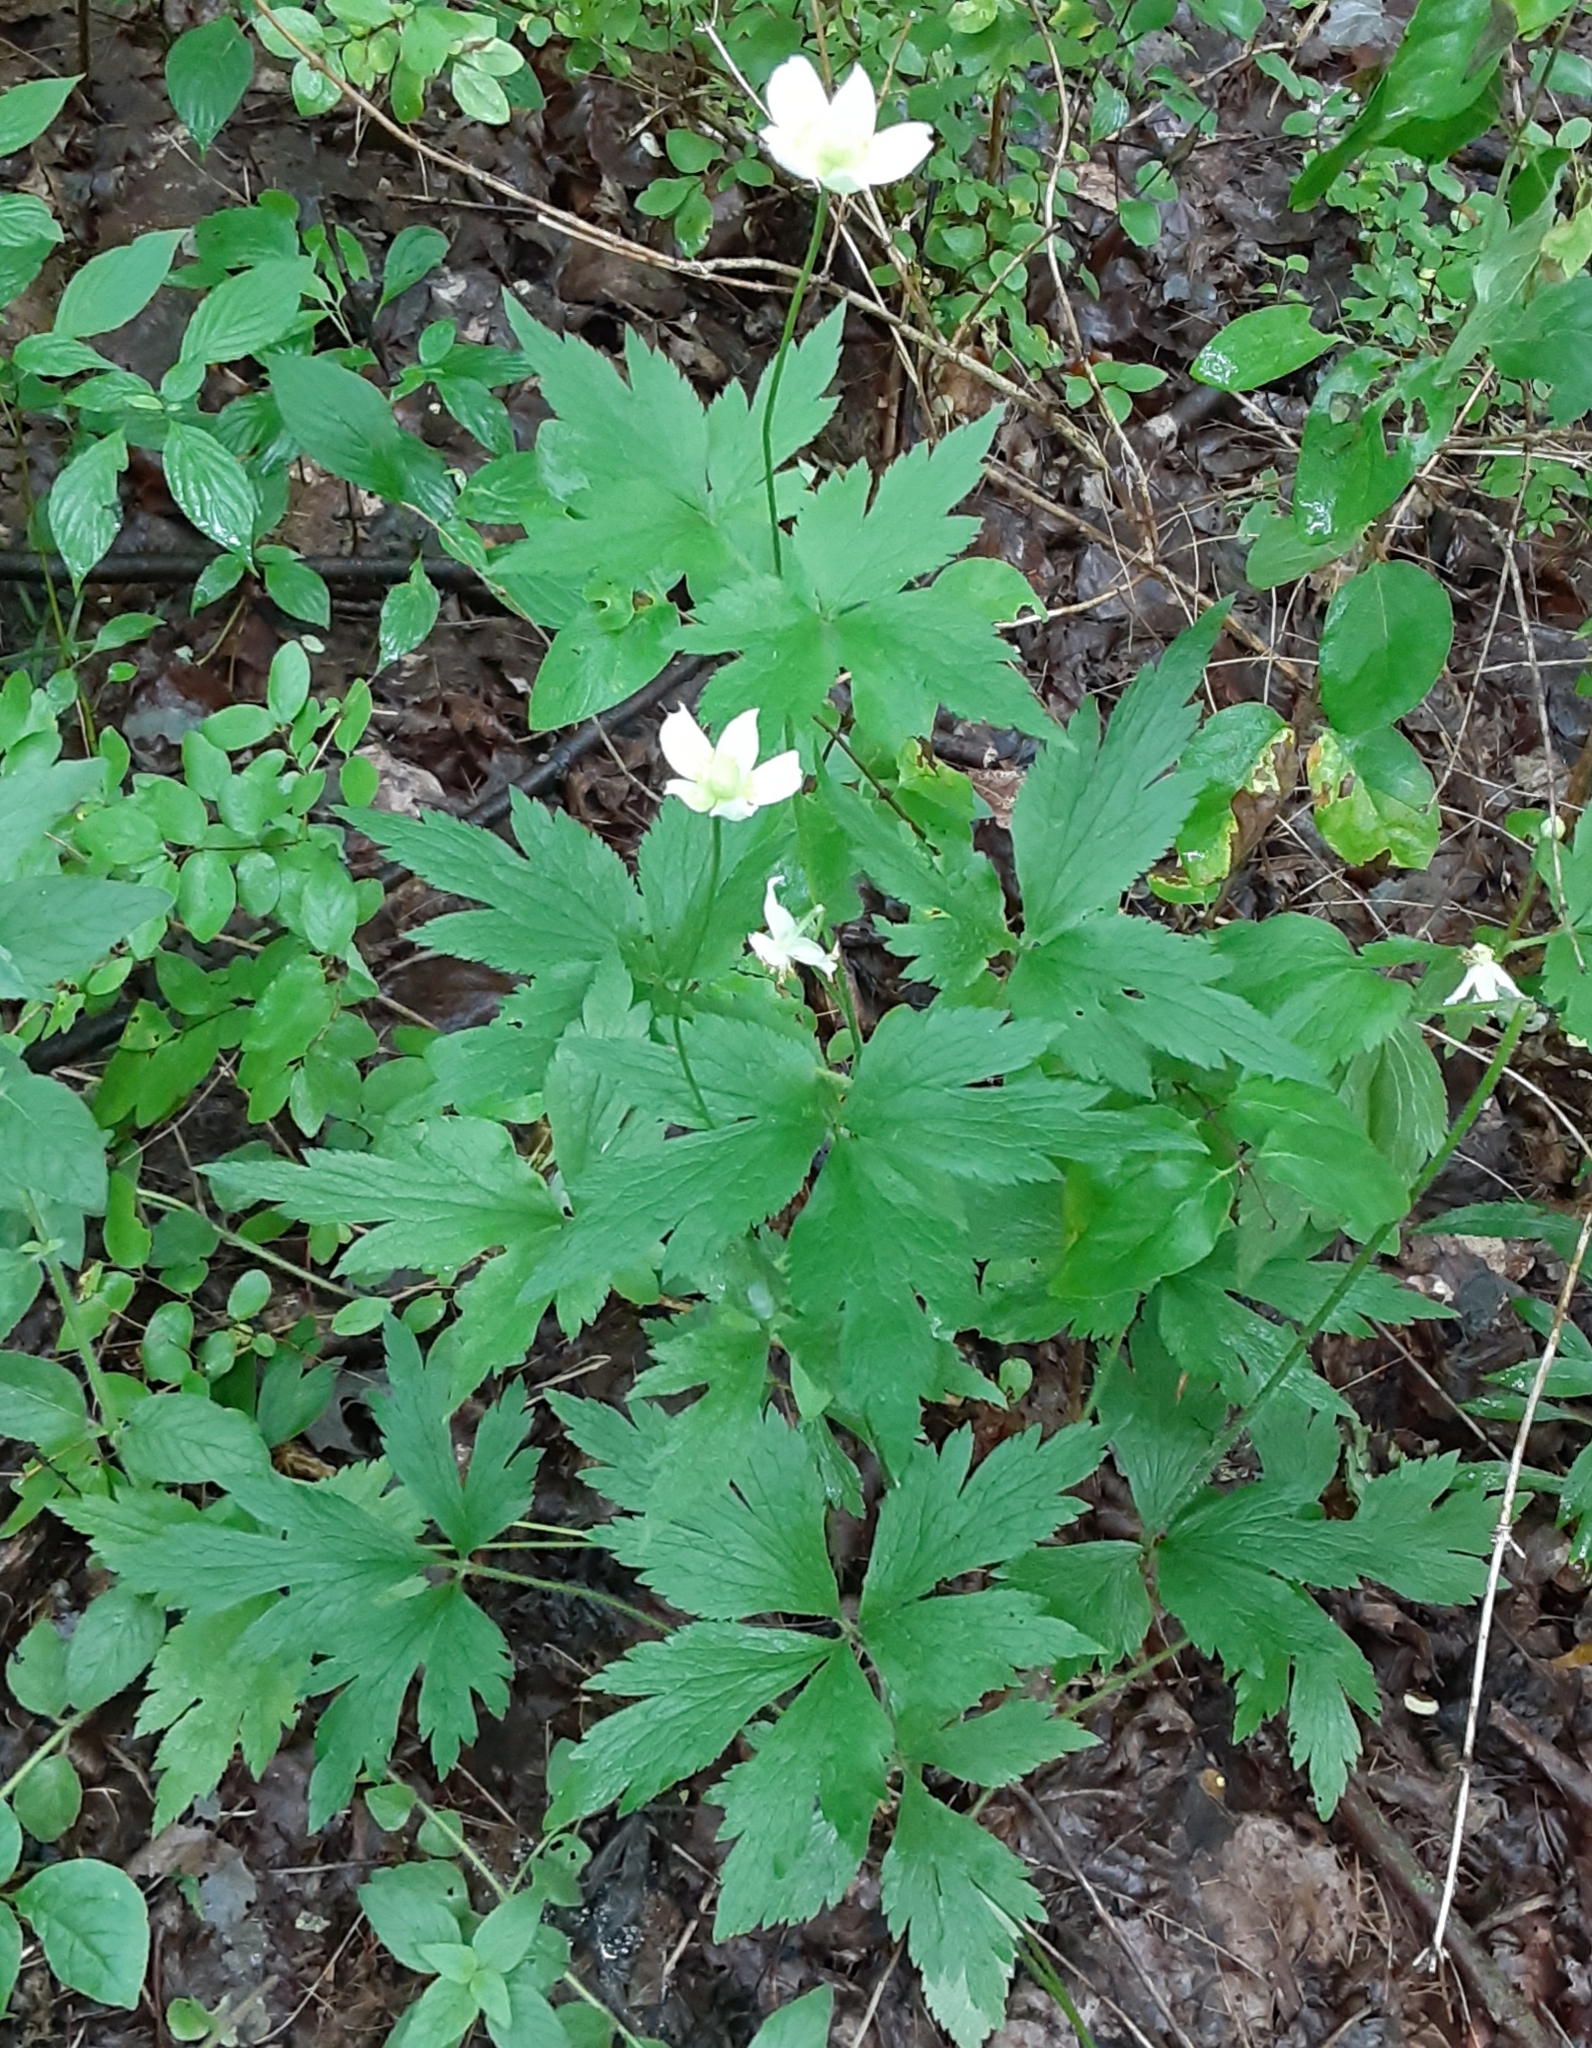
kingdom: Plantae
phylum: Tracheophyta
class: Magnoliopsida
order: Ranunculales
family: Ranunculaceae
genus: Anemone
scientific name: Anemone virginiana
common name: Tall anemone
